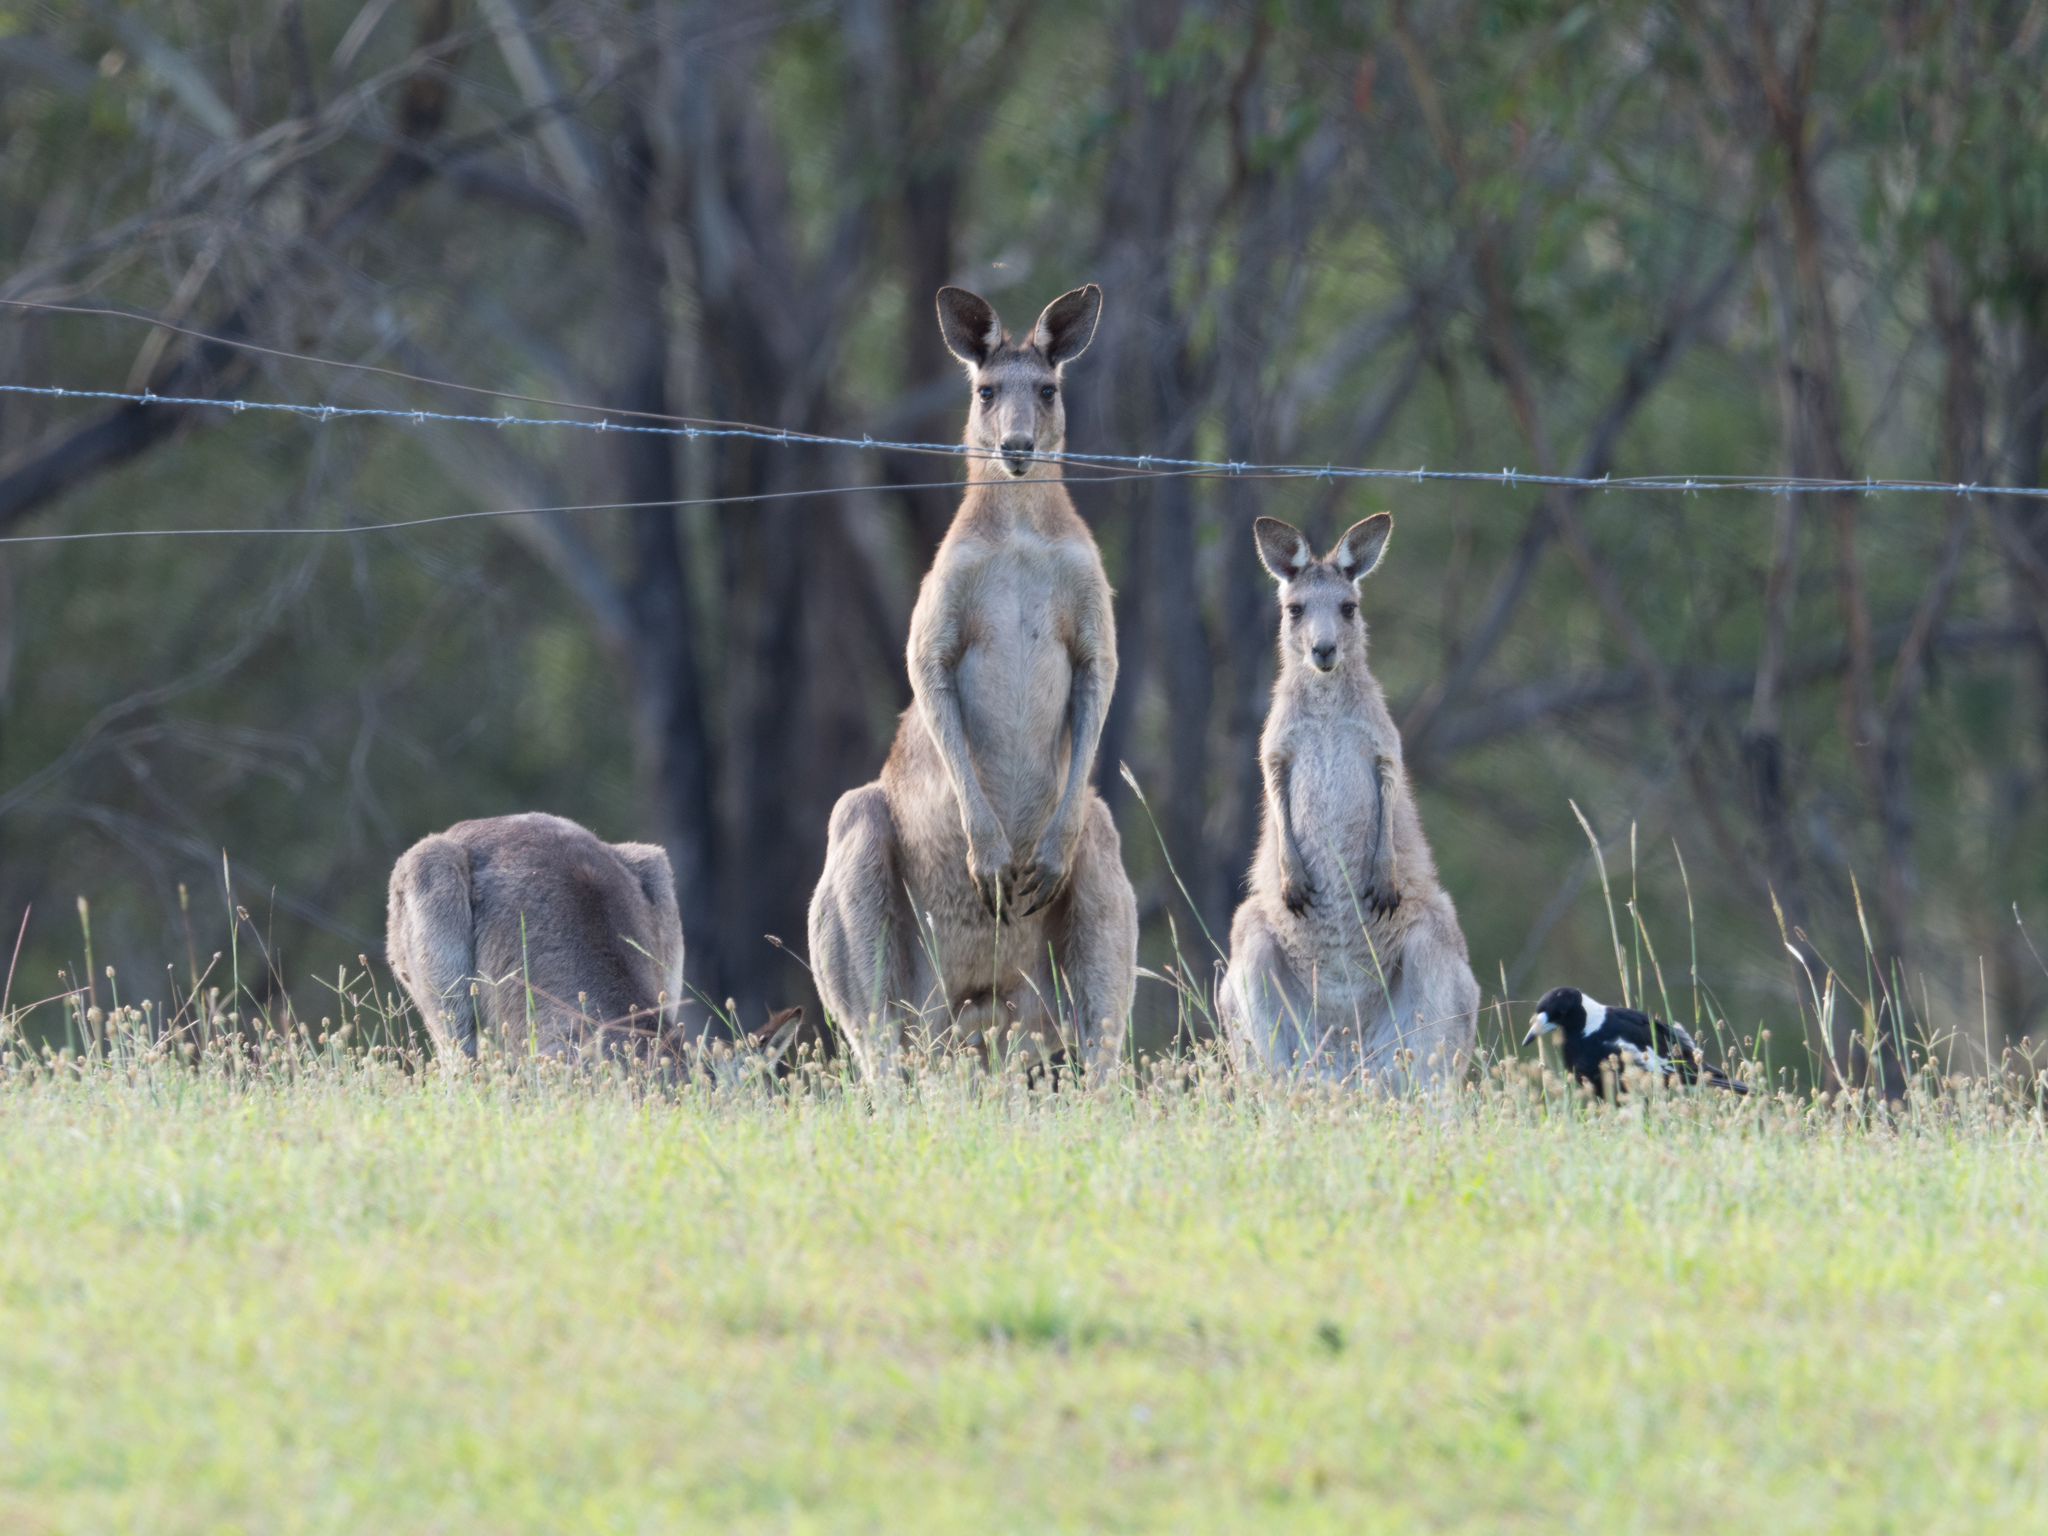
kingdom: Animalia
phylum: Chordata
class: Mammalia
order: Diprotodontia
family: Macropodidae
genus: Macropus
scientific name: Macropus giganteus
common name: Eastern grey kangaroo
